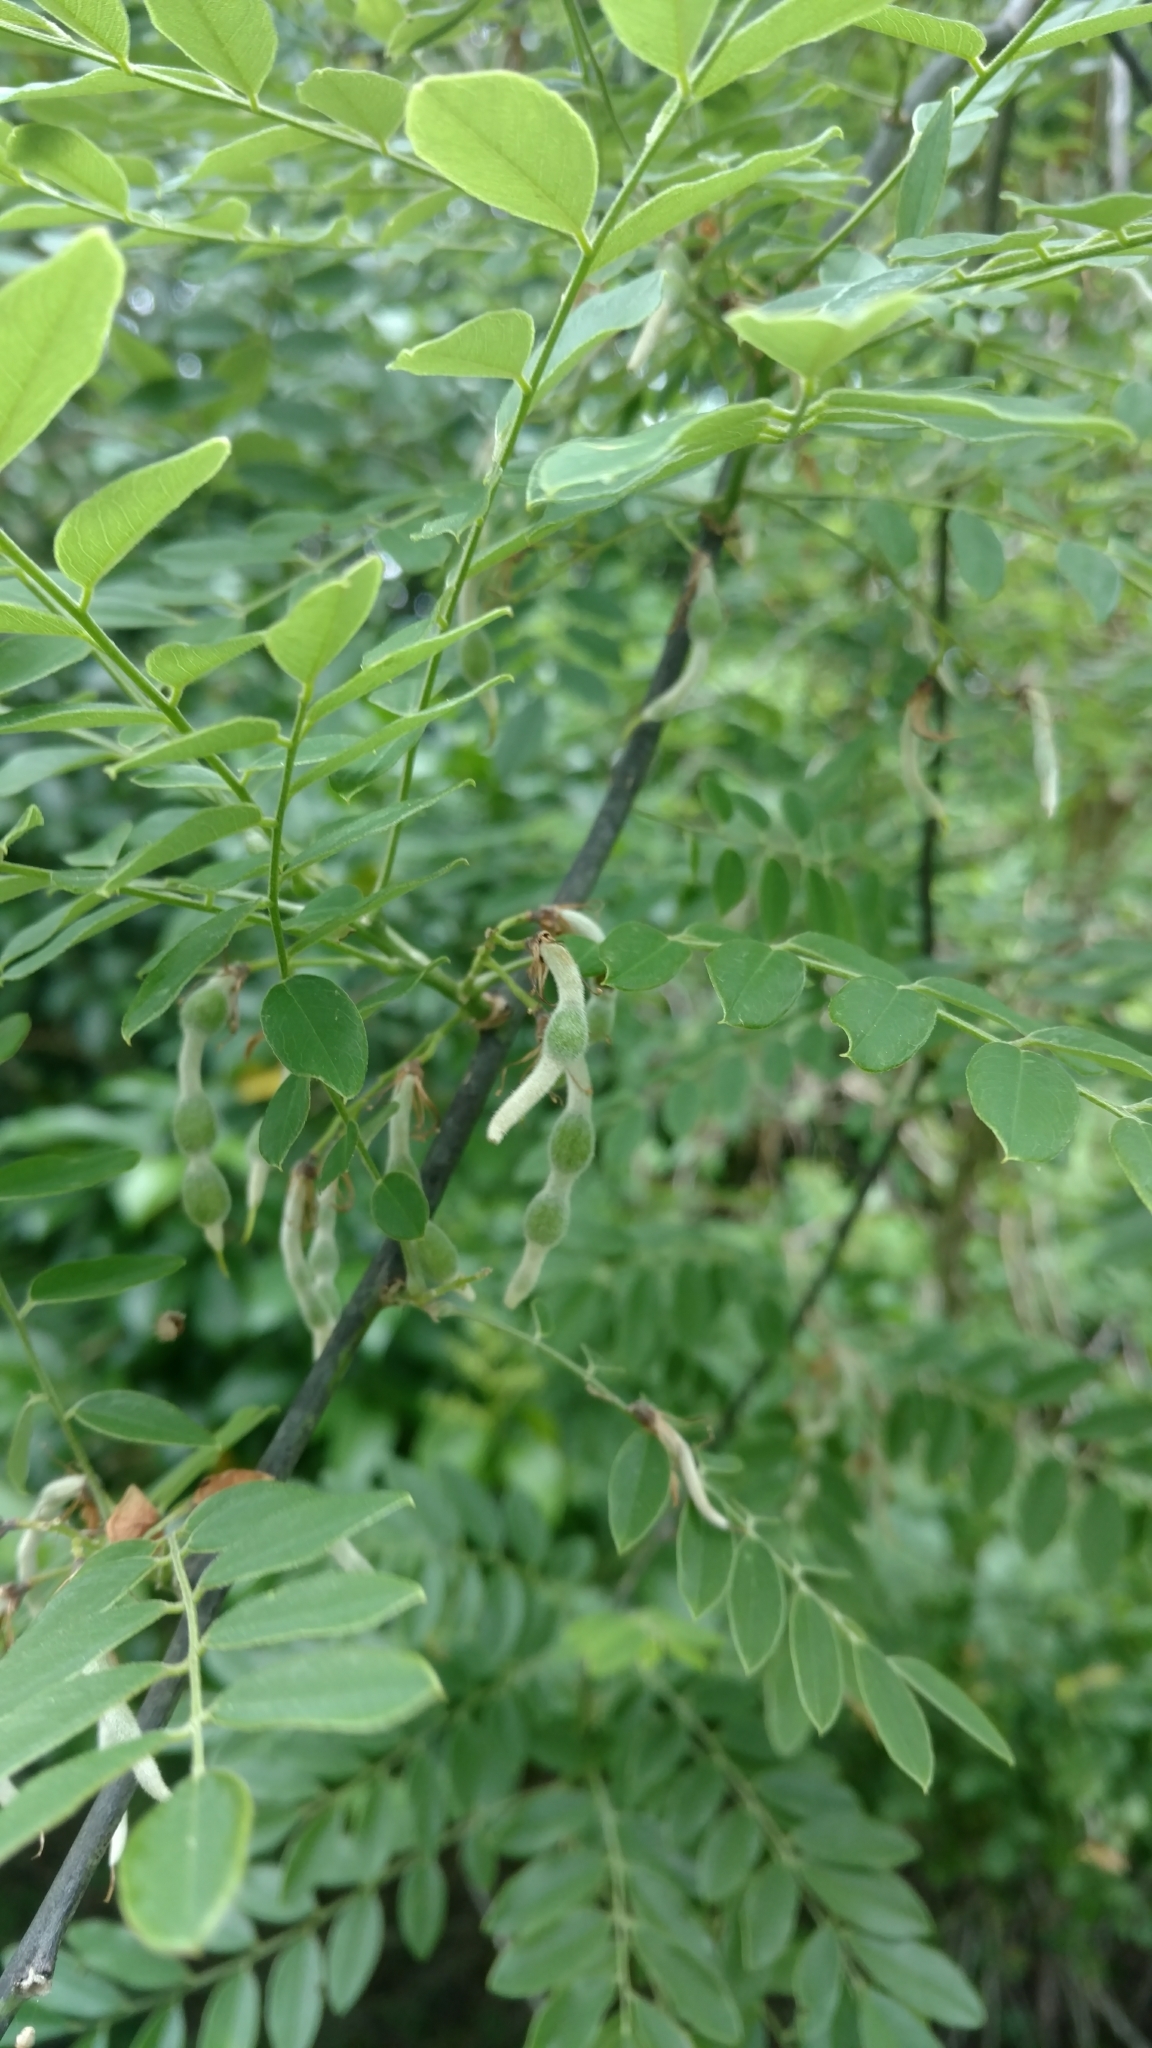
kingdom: Plantae
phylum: Tracheophyta
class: Magnoliopsida
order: Fabales
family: Fabaceae
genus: Styphnolobium
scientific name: Styphnolobium affine
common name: Texas sophora
